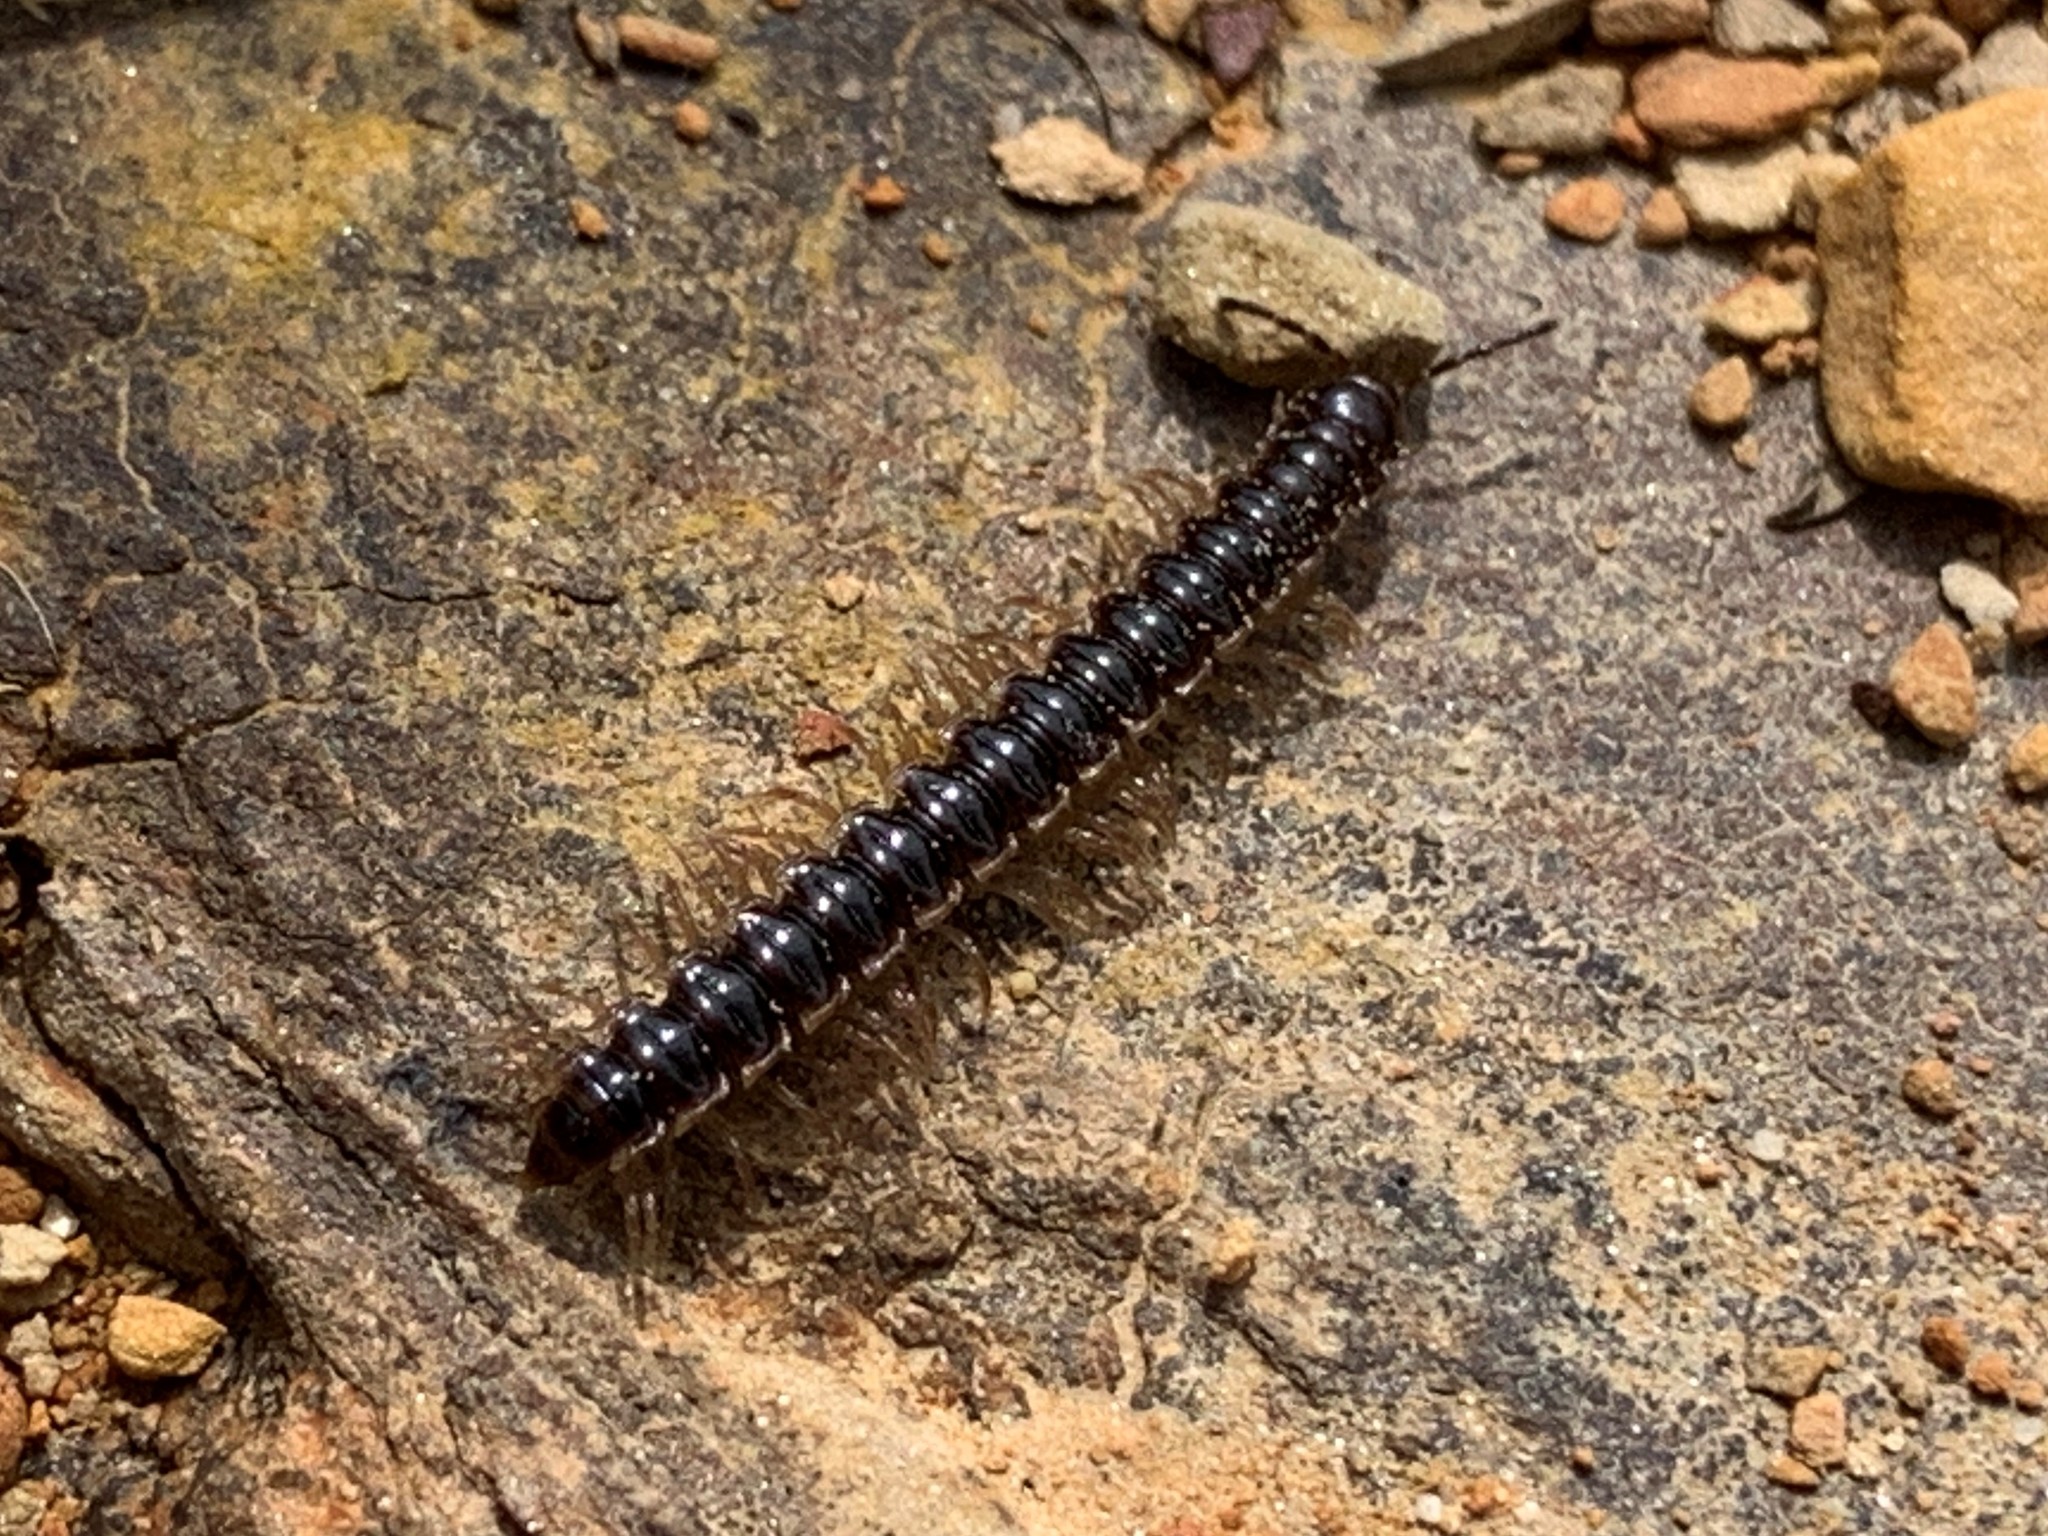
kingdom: Animalia
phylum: Arthropoda
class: Diplopoda
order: Polydesmida
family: Paradoxosomatidae
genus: Oxidus
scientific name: Oxidus gracilis
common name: Greenhouse millipede
